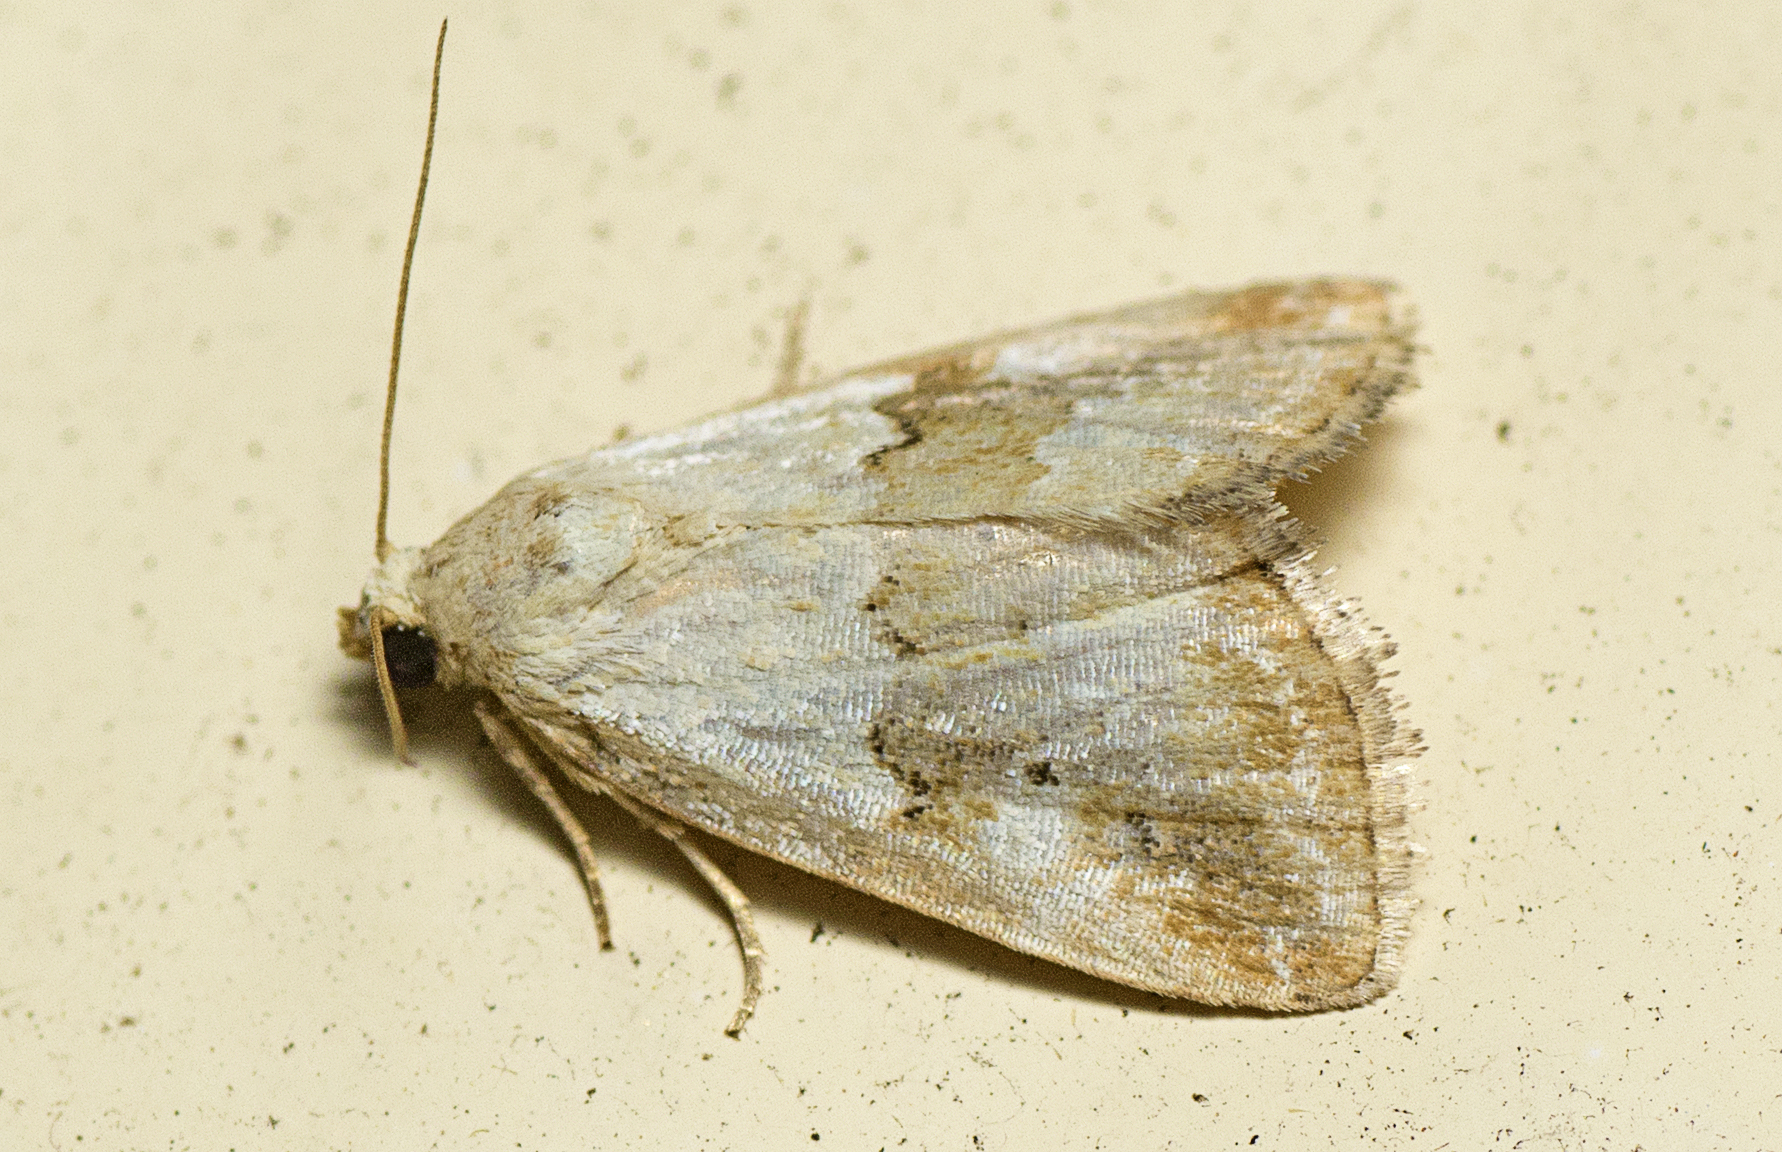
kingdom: Animalia
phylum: Arthropoda
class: Insecta
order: Lepidoptera
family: Noctuidae
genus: Maliattha
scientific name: Maliattha amorpha
